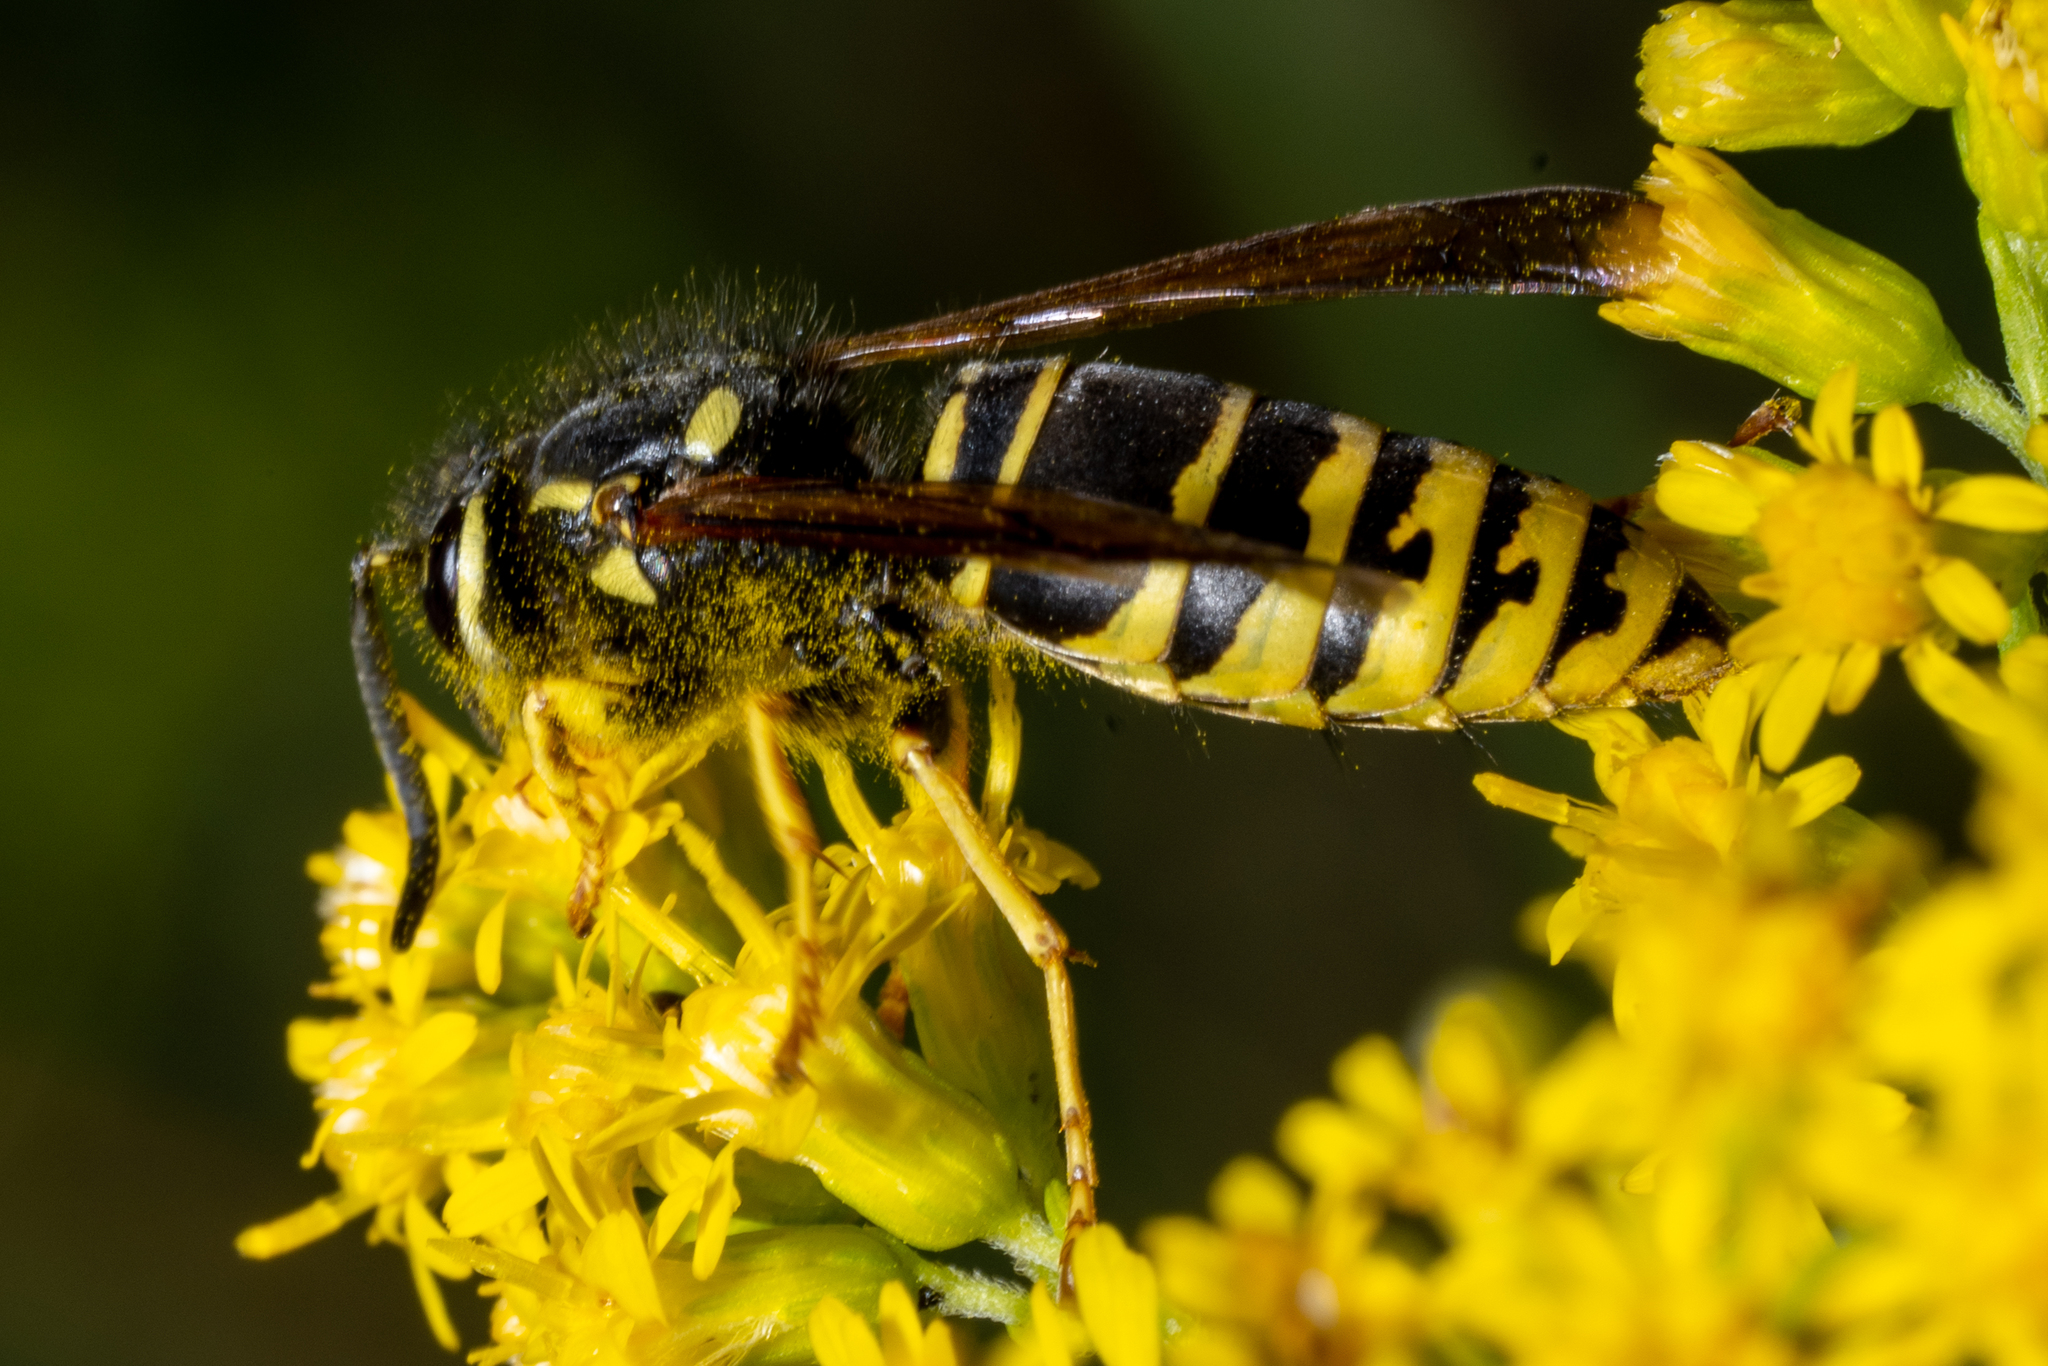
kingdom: Animalia
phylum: Arthropoda
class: Insecta
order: Hymenoptera
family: Vespidae
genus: Vespula
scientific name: Vespula vidua
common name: Widow yellowjacket
